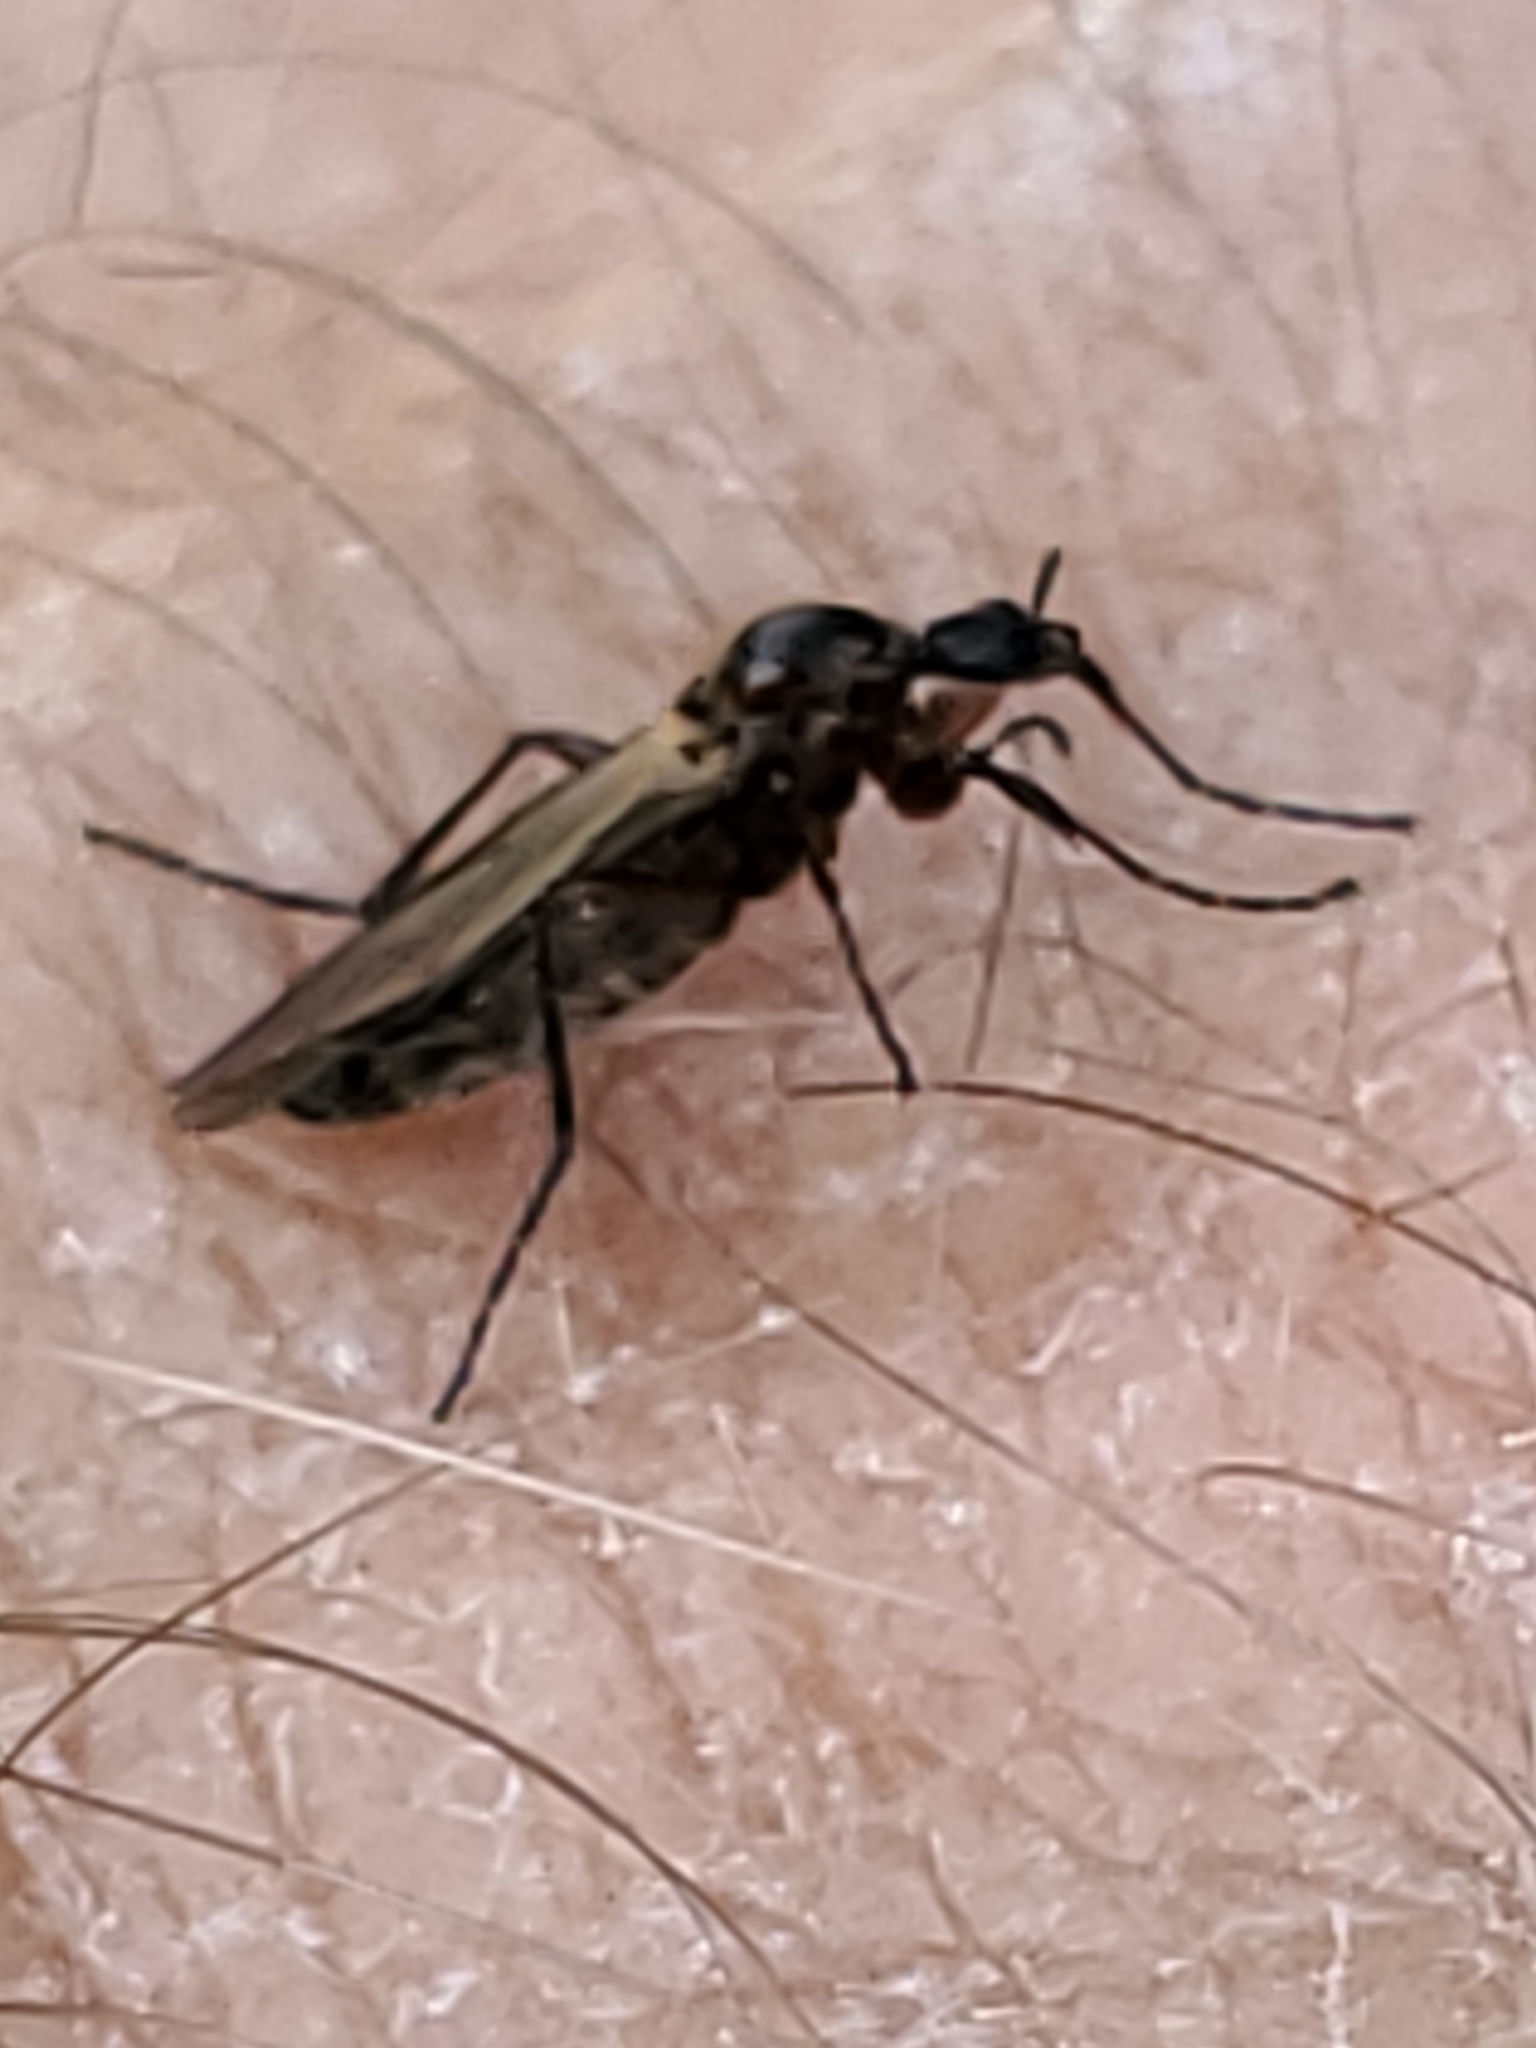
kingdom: Animalia
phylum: Arthropoda
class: Insecta
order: Diptera
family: Bibionidae
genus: Bibio
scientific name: Bibio slossonae
